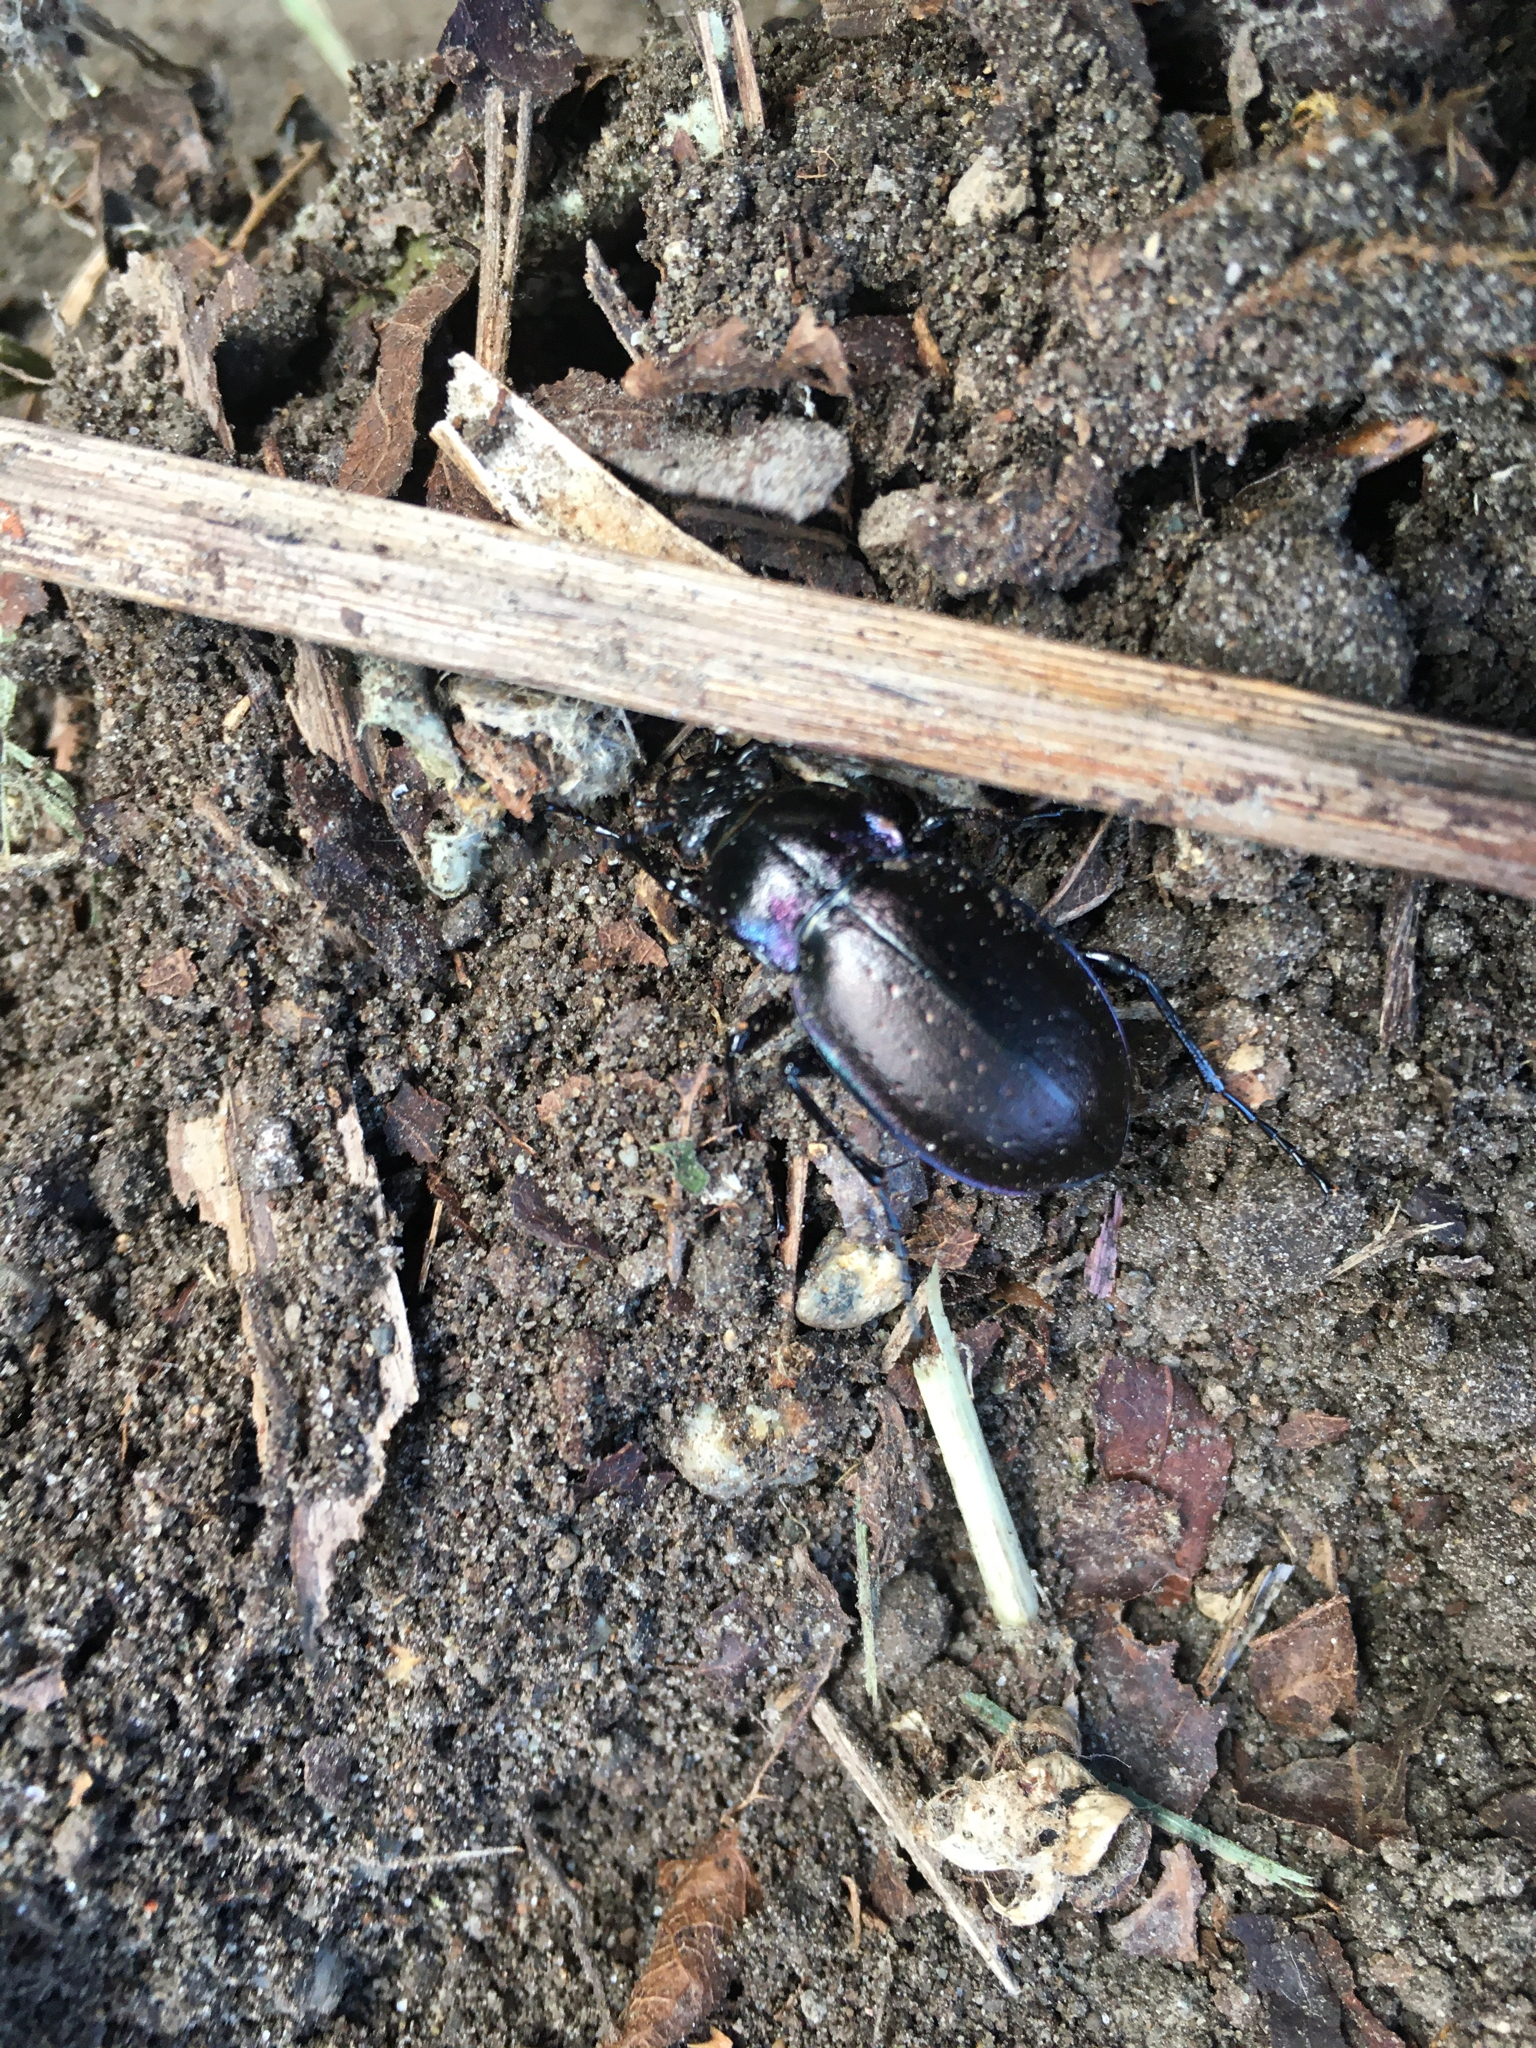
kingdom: Animalia
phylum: Arthropoda
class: Insecta
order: Coleoptera
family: Carabidae
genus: Carabus
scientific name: Carabus nemoralis
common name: European ground beetle
